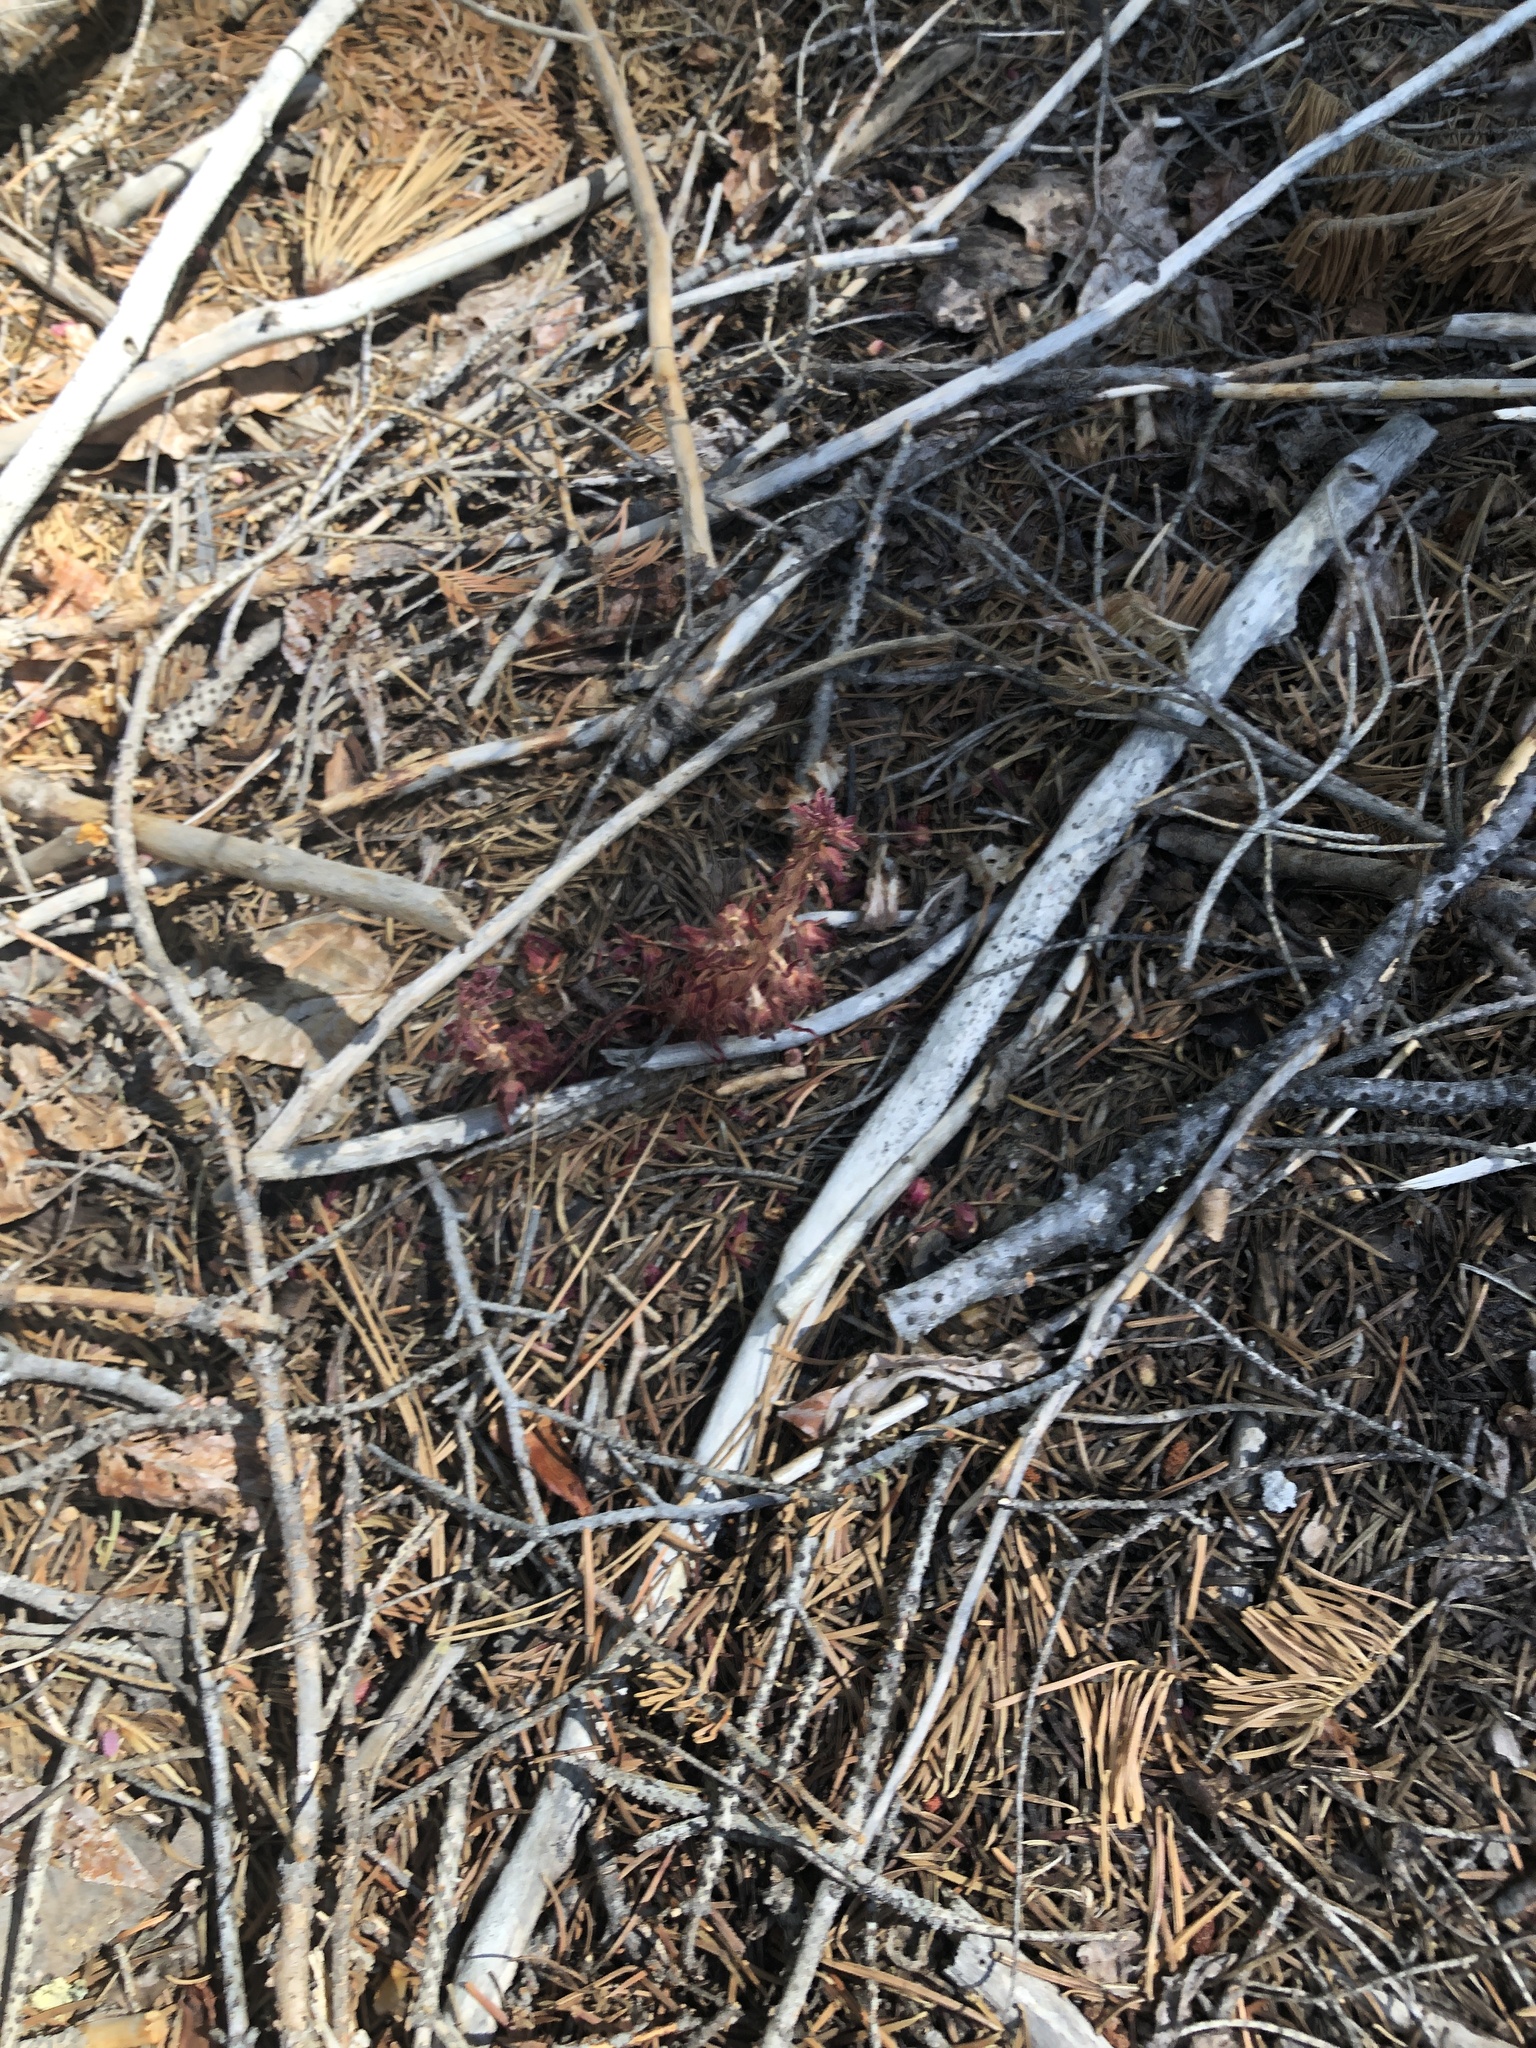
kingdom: Plantae
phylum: Tracheophyta
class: Magnoliopsida
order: Ericales
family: Ericaceae
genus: Sarcodes
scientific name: Sarcodes sanguinea
